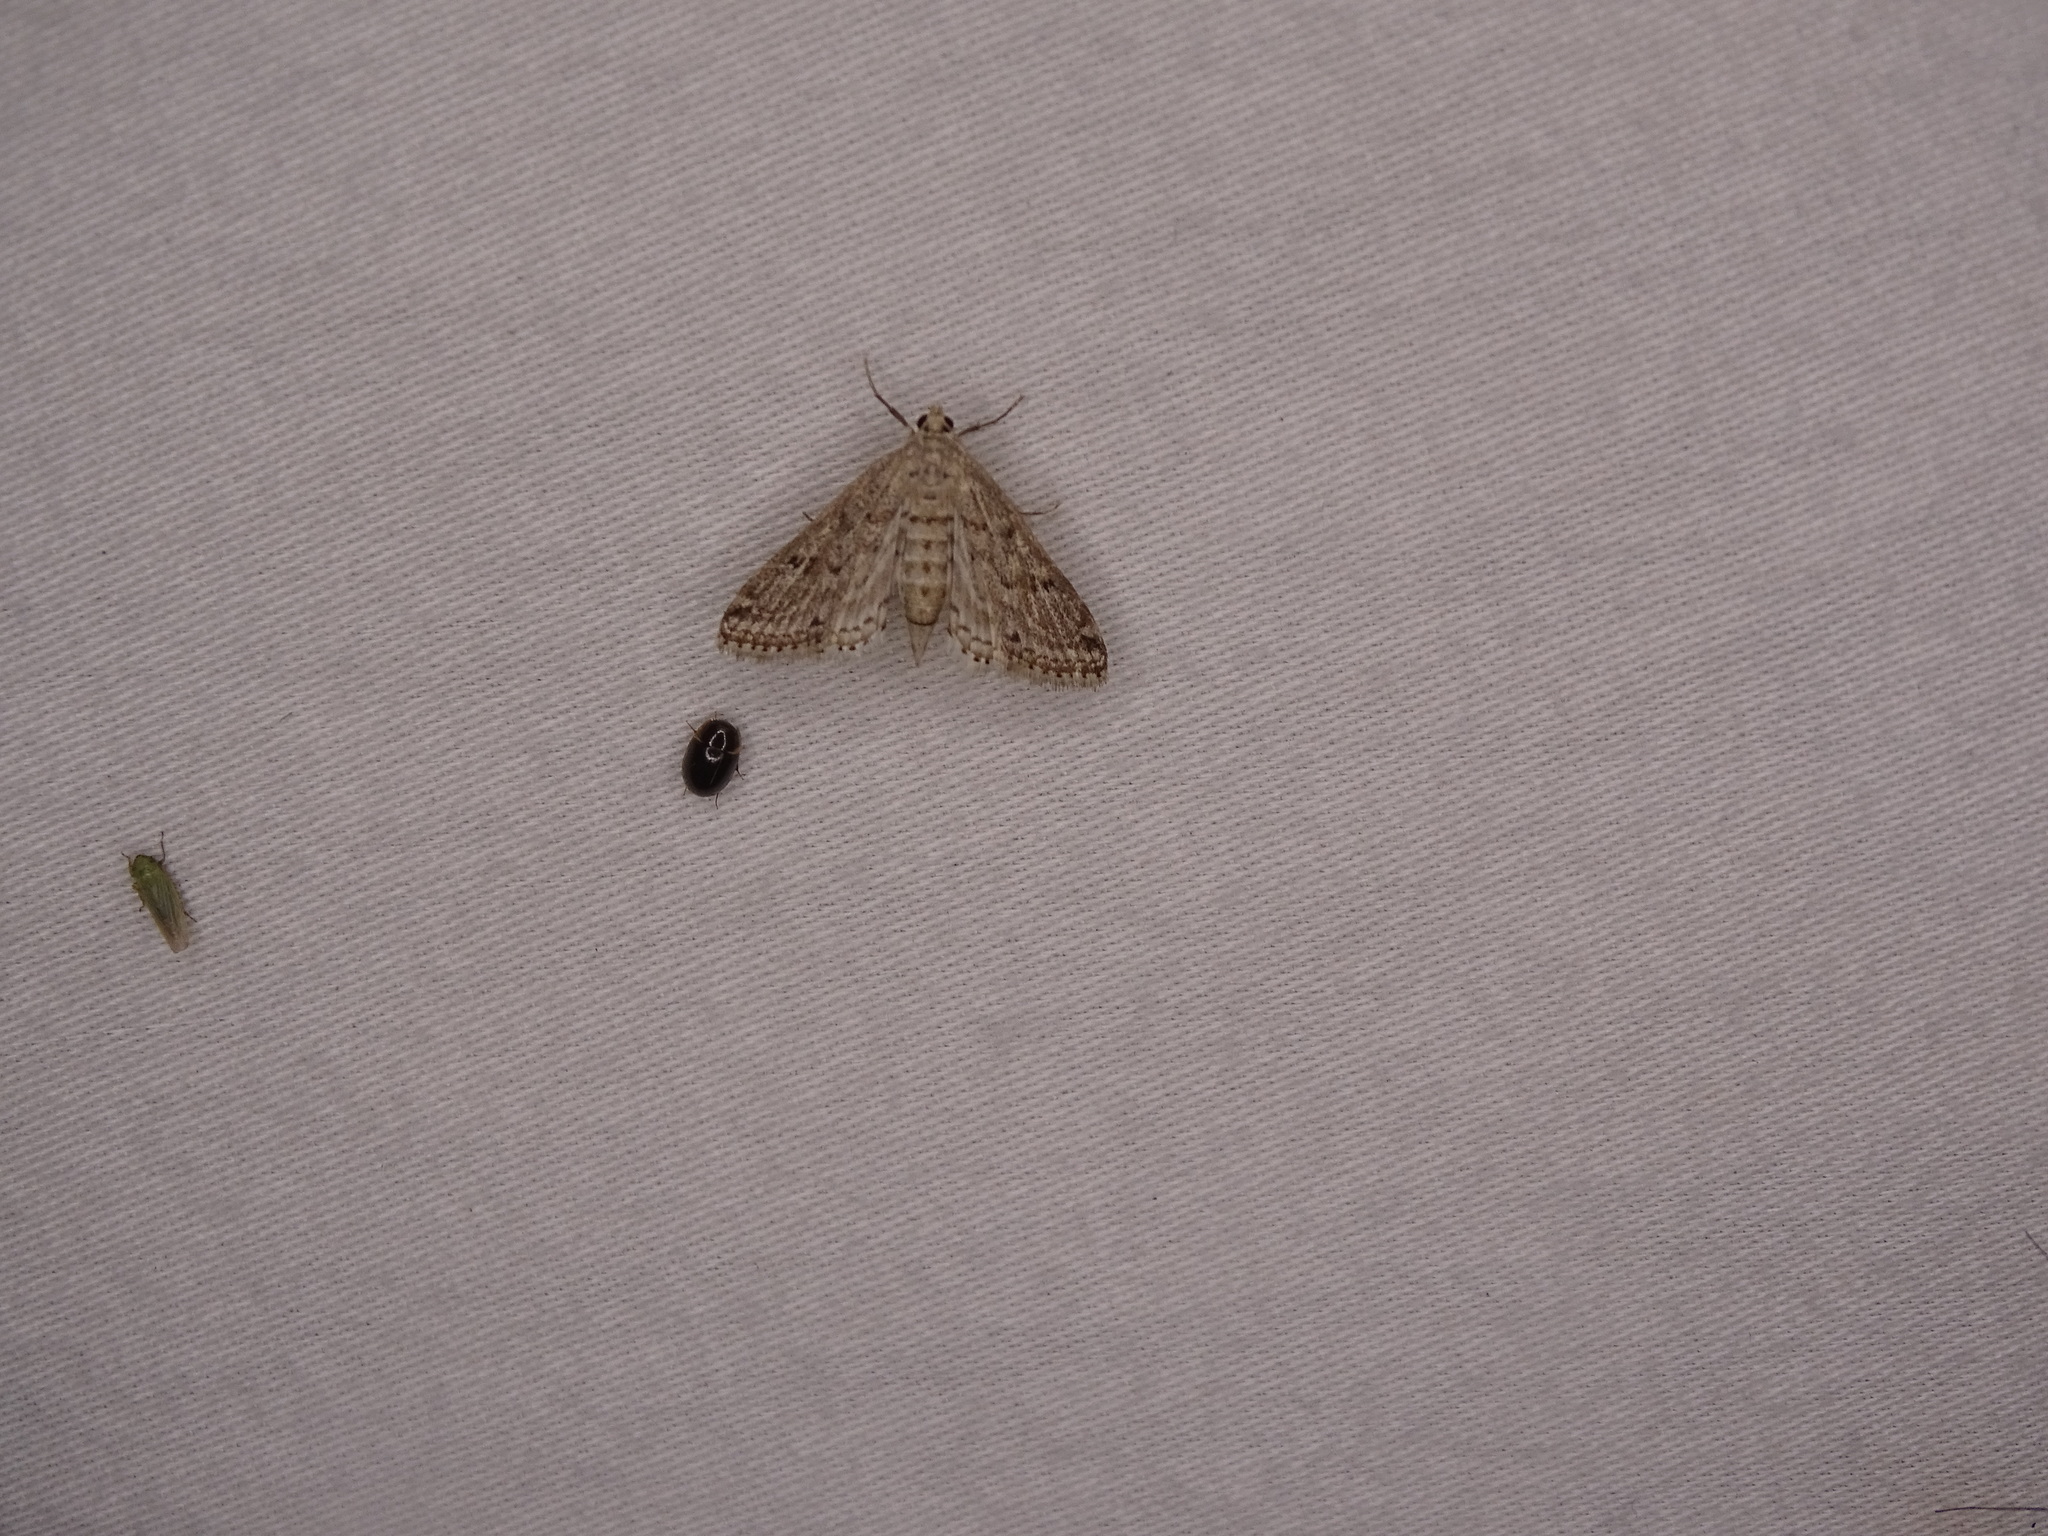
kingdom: Animalia
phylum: Arthropoda
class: Insecta
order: Lepidoptera
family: Crambidae
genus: Parapoynx
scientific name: Parapoynx allionealis
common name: Bladderwort casemaker
